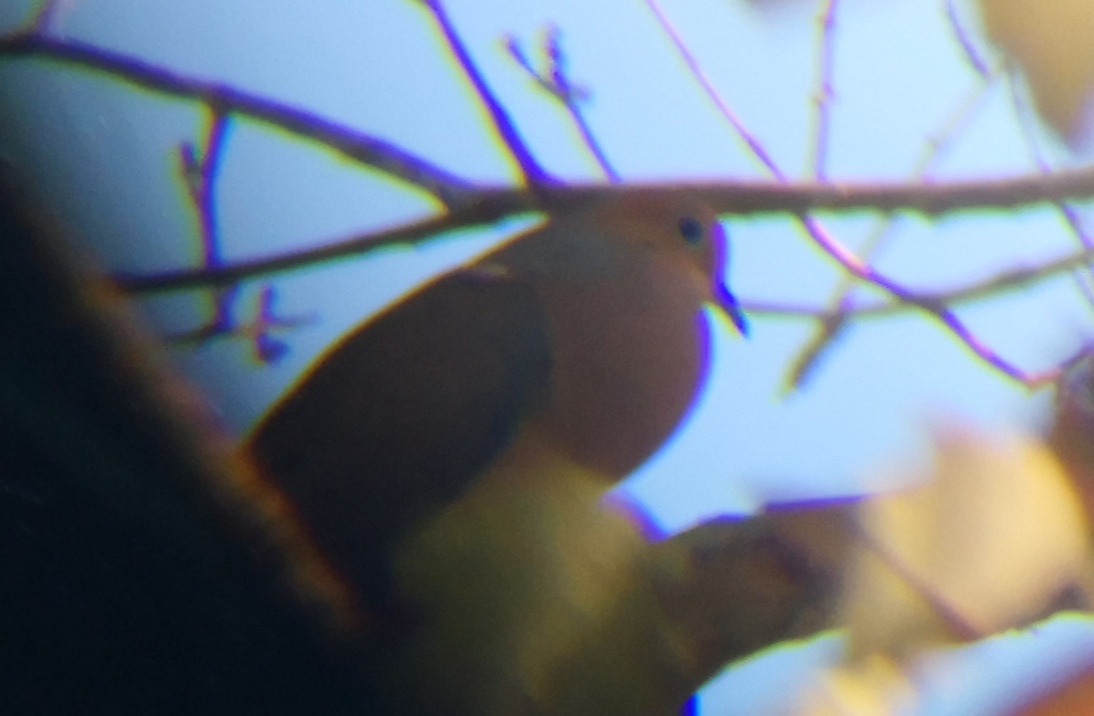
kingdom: Animalia
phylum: Chordata
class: Aves
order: Columbiformes
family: Columbidae
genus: Zenaida
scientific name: Zenaida macroura
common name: Mourning dove
